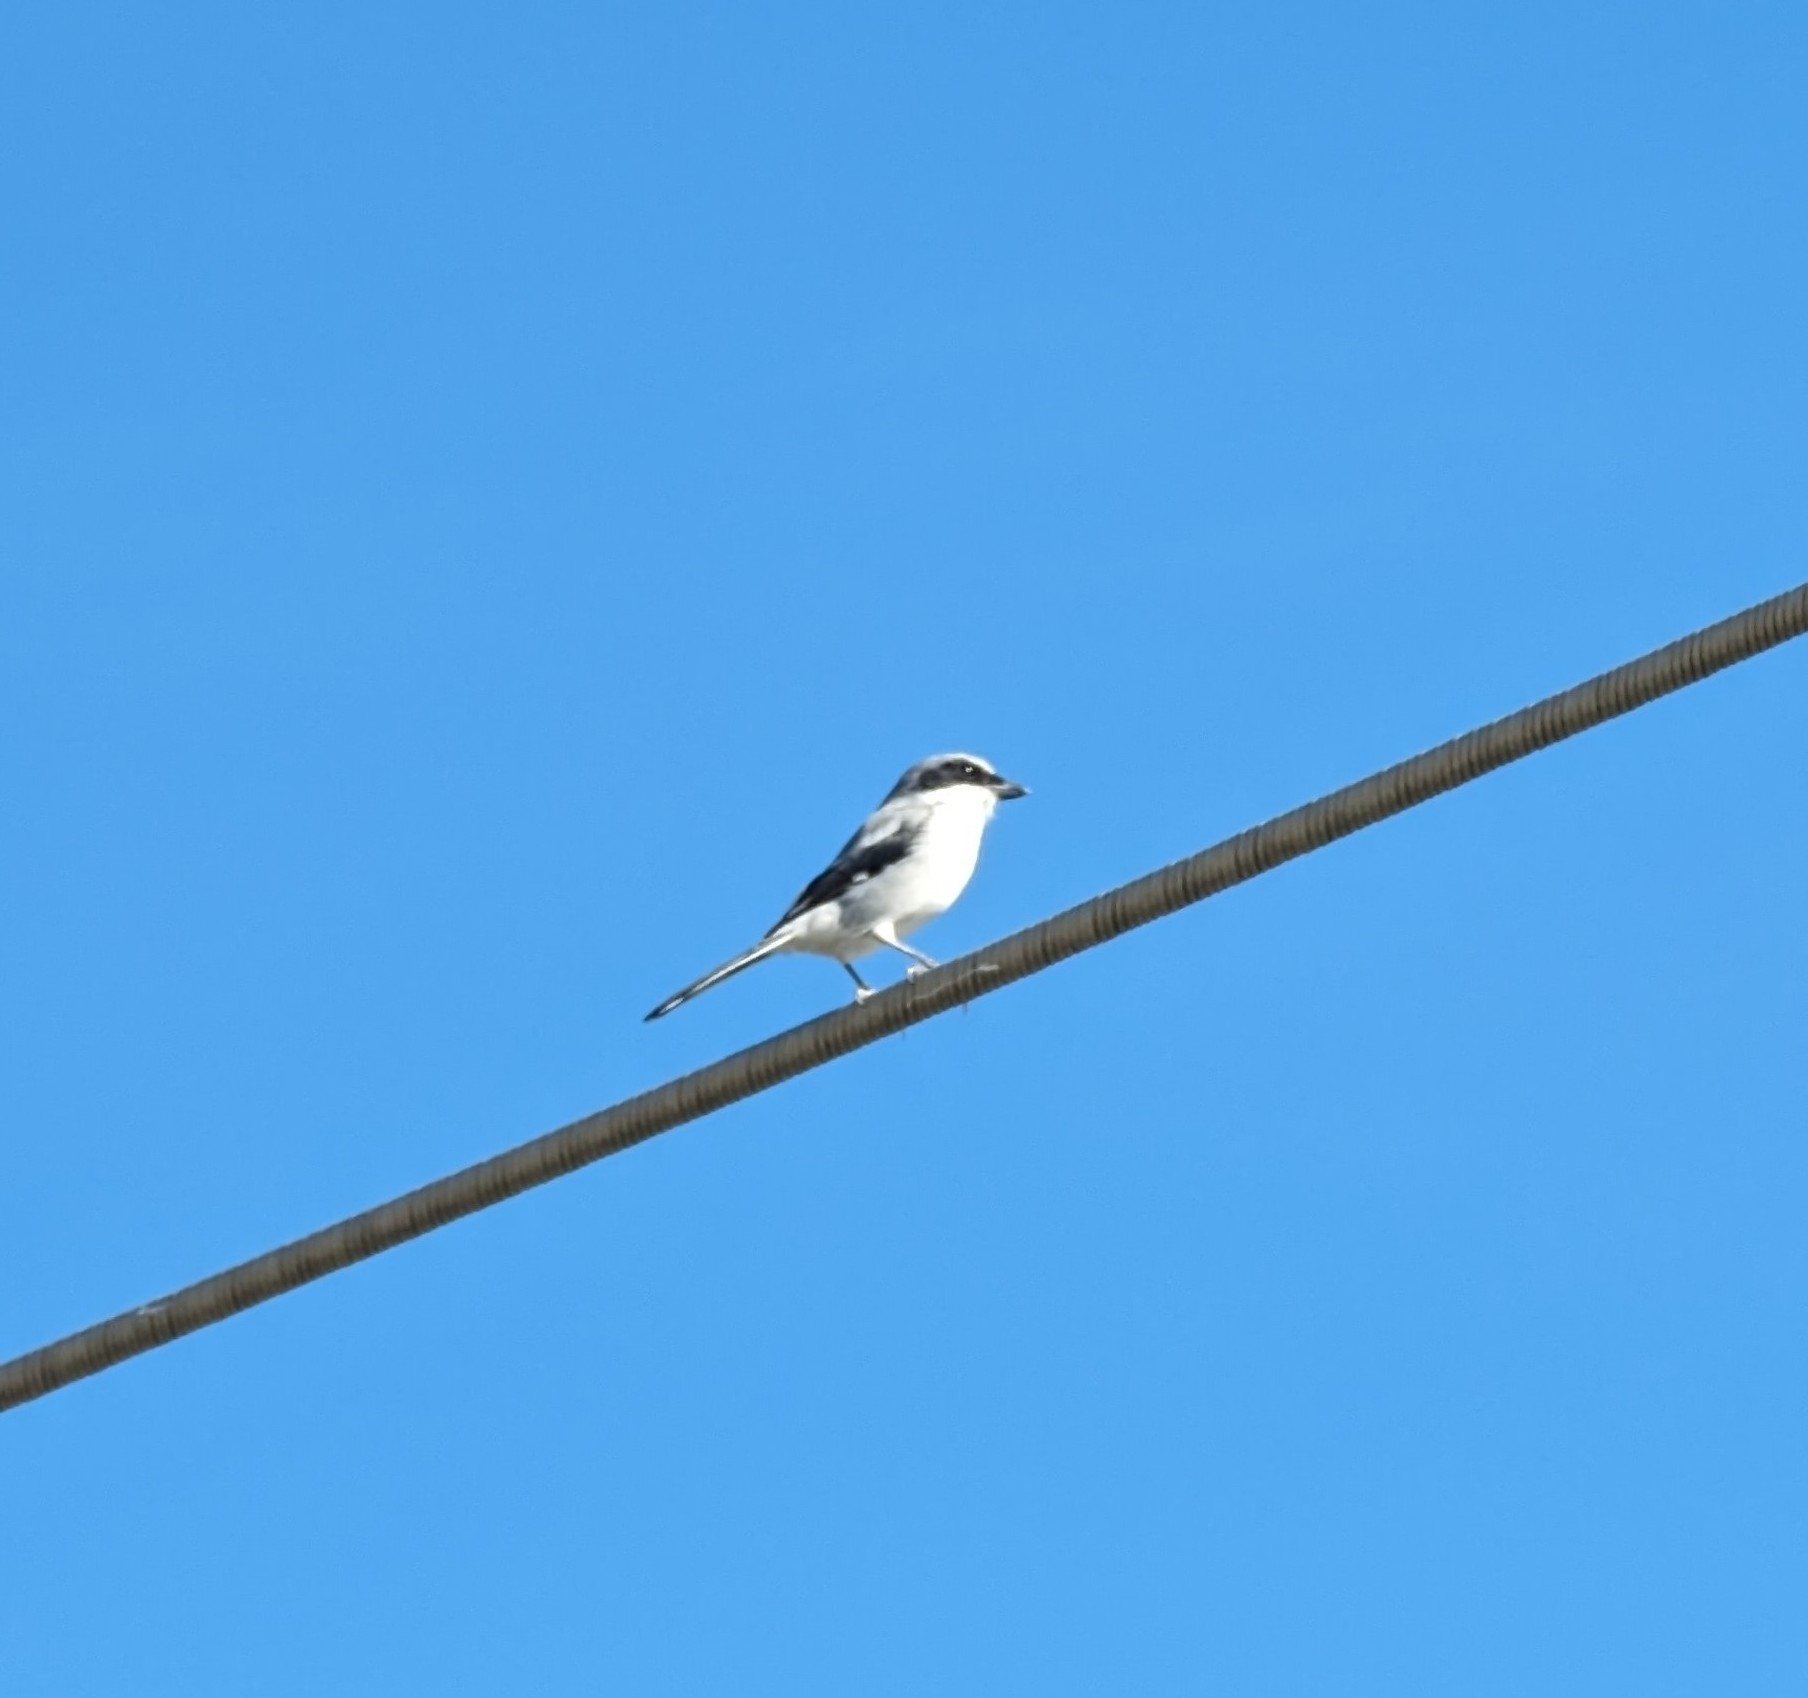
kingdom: Animalia
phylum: Chordata
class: Aves
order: Passeriformes
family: Laniidae
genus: Lanius
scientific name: Lanius ludovicianus
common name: Loggerhead shrike
